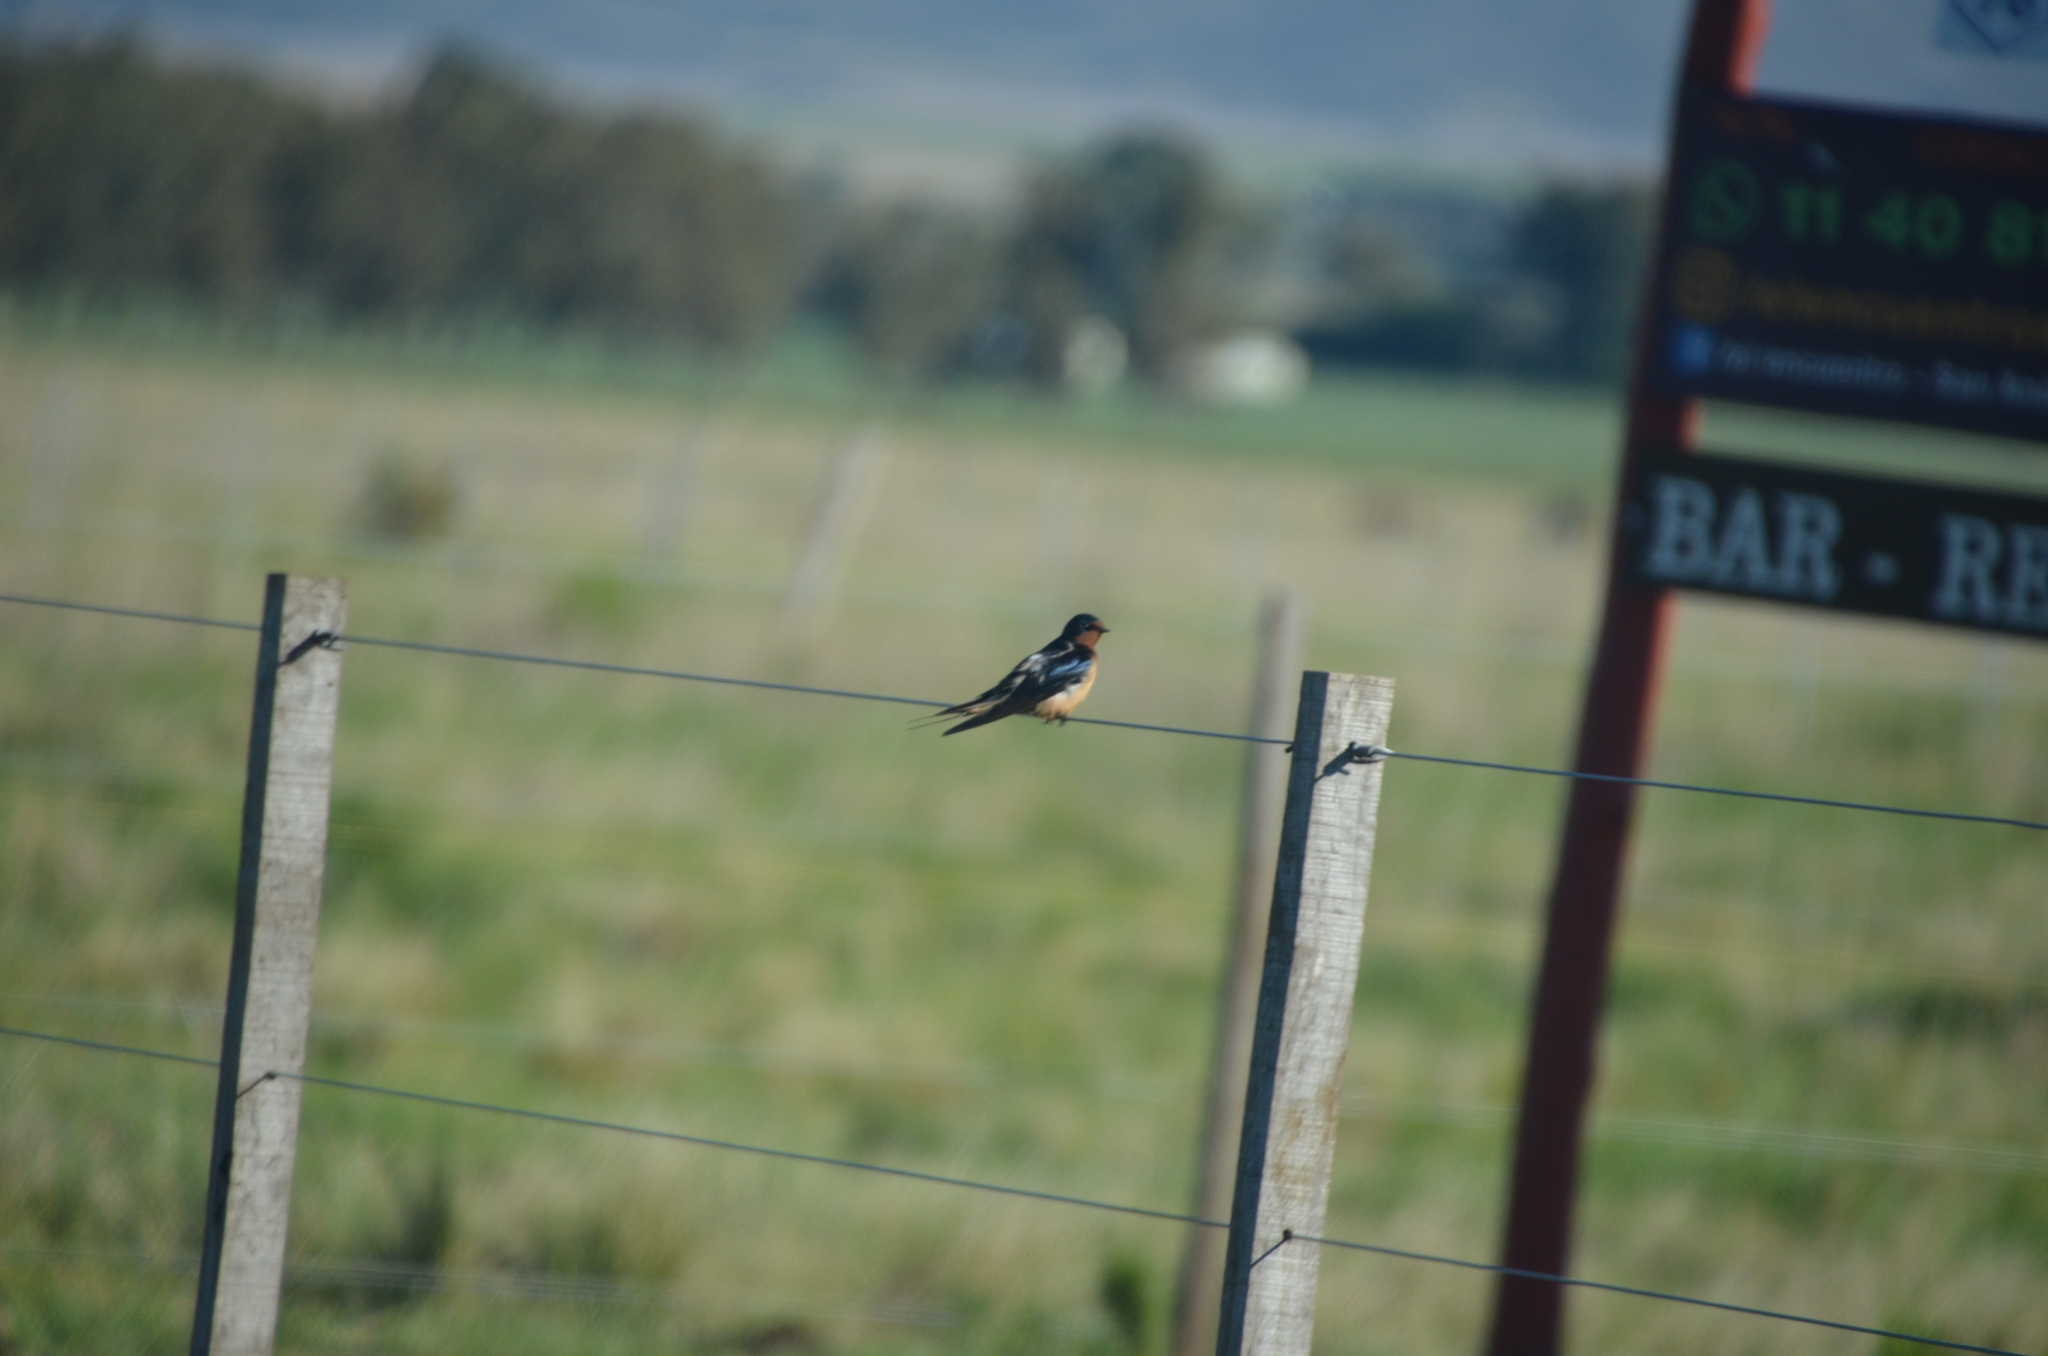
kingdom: Animalia
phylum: Chordata
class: Aves
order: Passeriformes
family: Hirundinidae
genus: Hirundo
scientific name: Hirundo rustica
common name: Barn swallow
